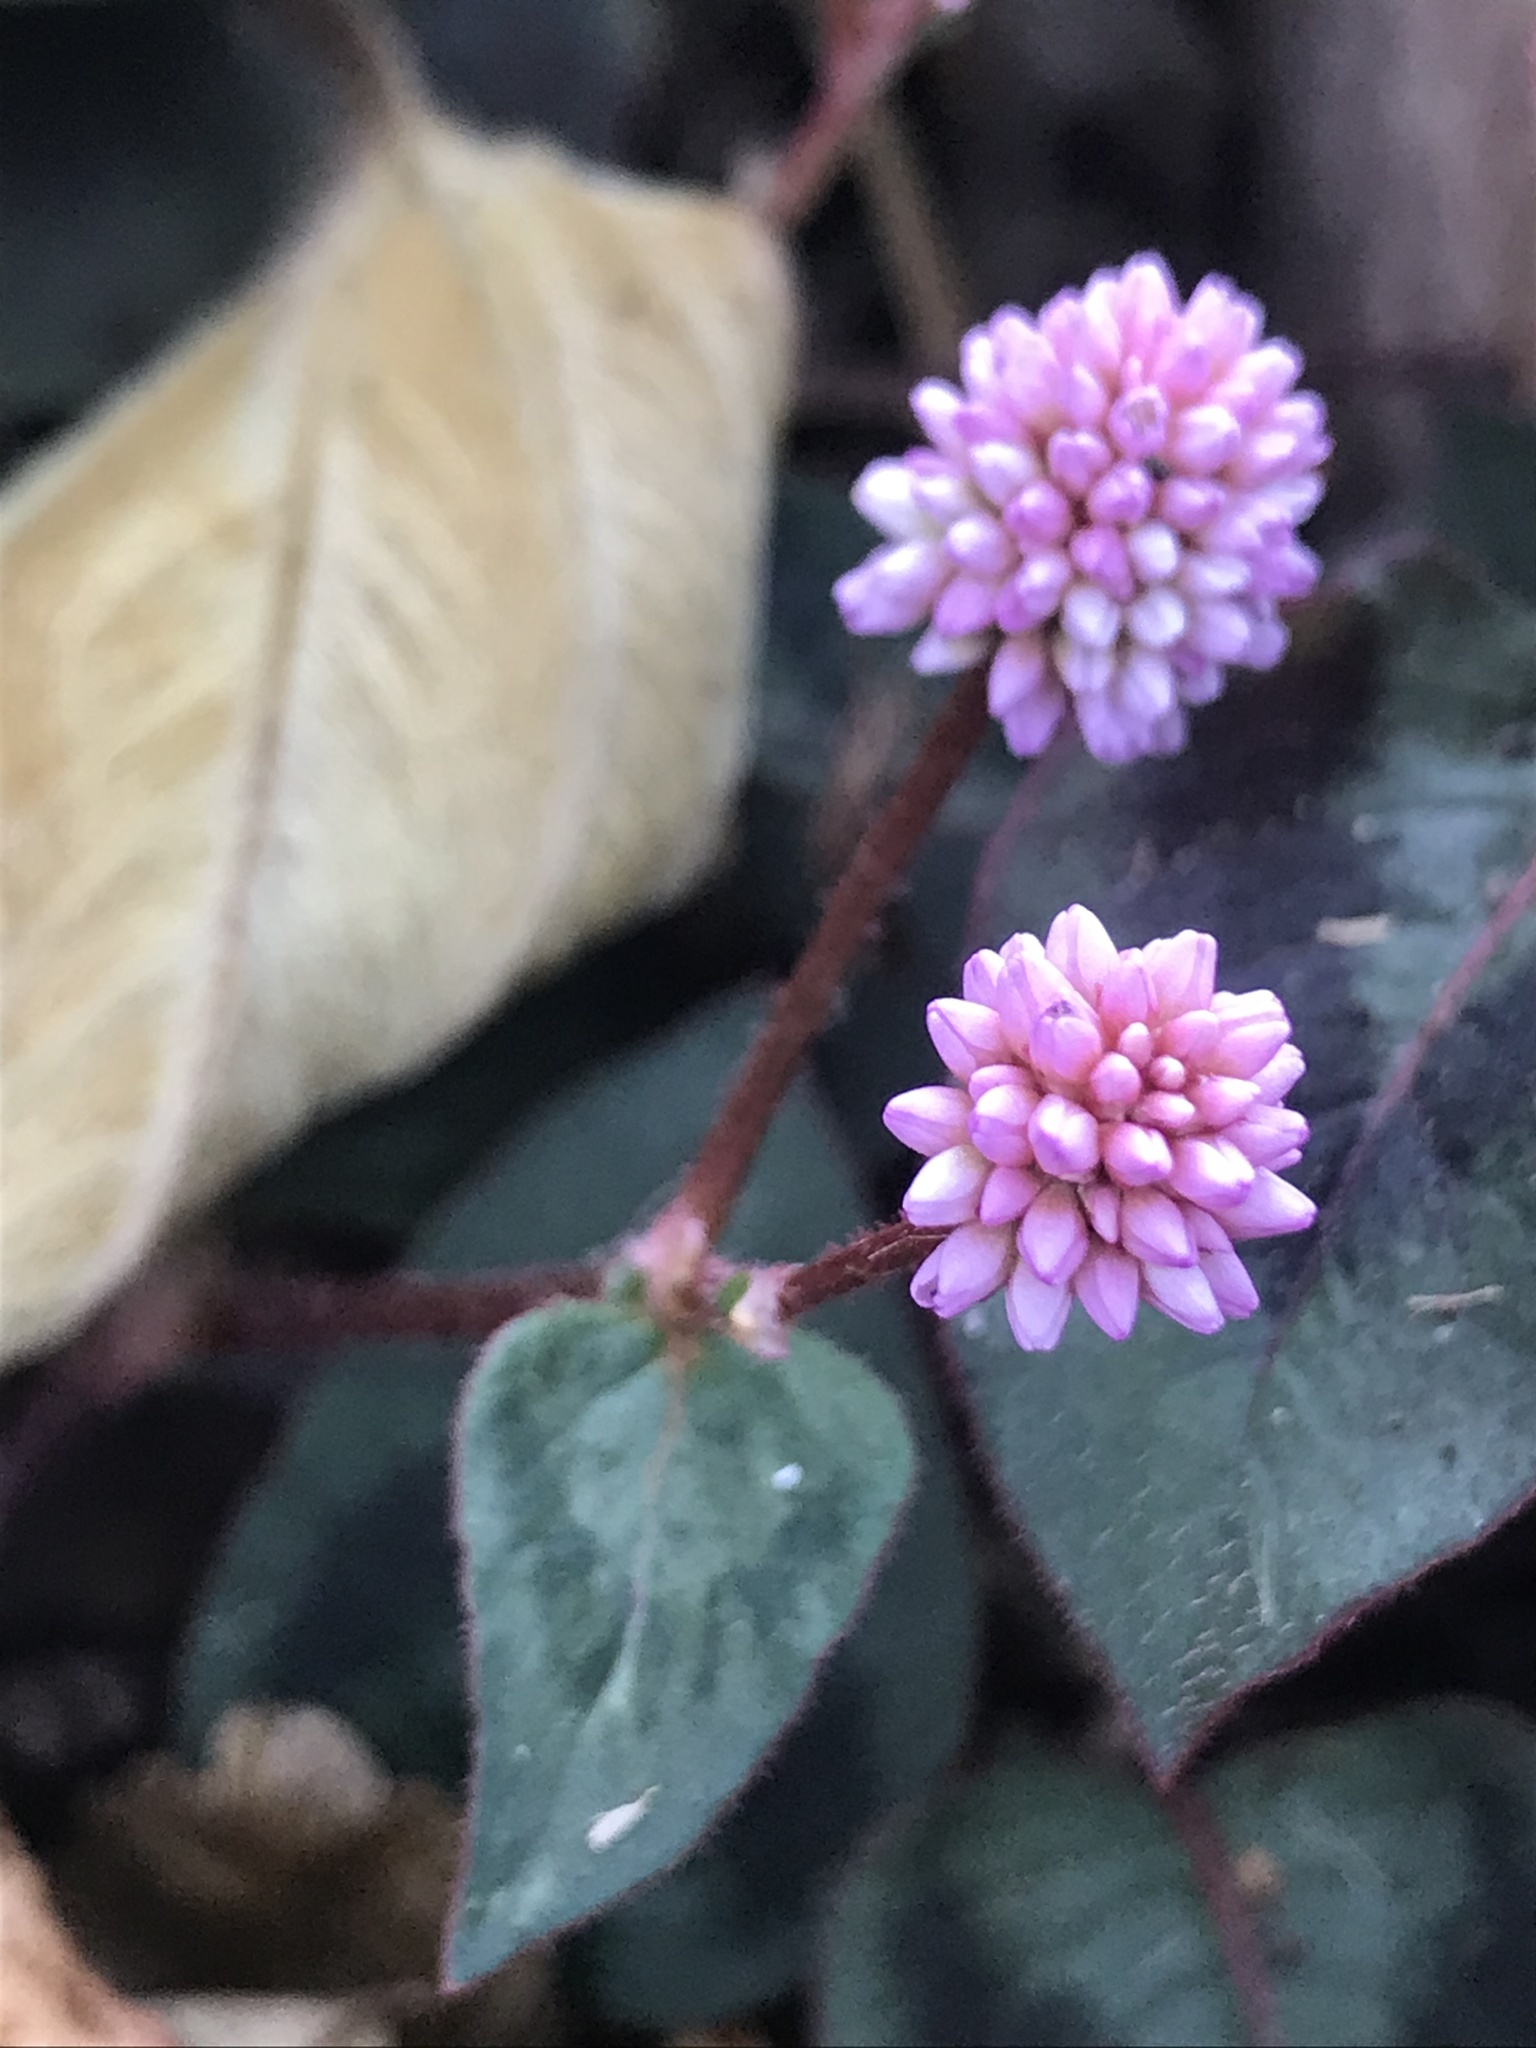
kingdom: Plantae
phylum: Tracheophyta
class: Magnoliopsida
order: Caryophyllales
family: Polygonaceae
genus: Persicaria
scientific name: Persicaria capitata
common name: Pinkhead smartweed
